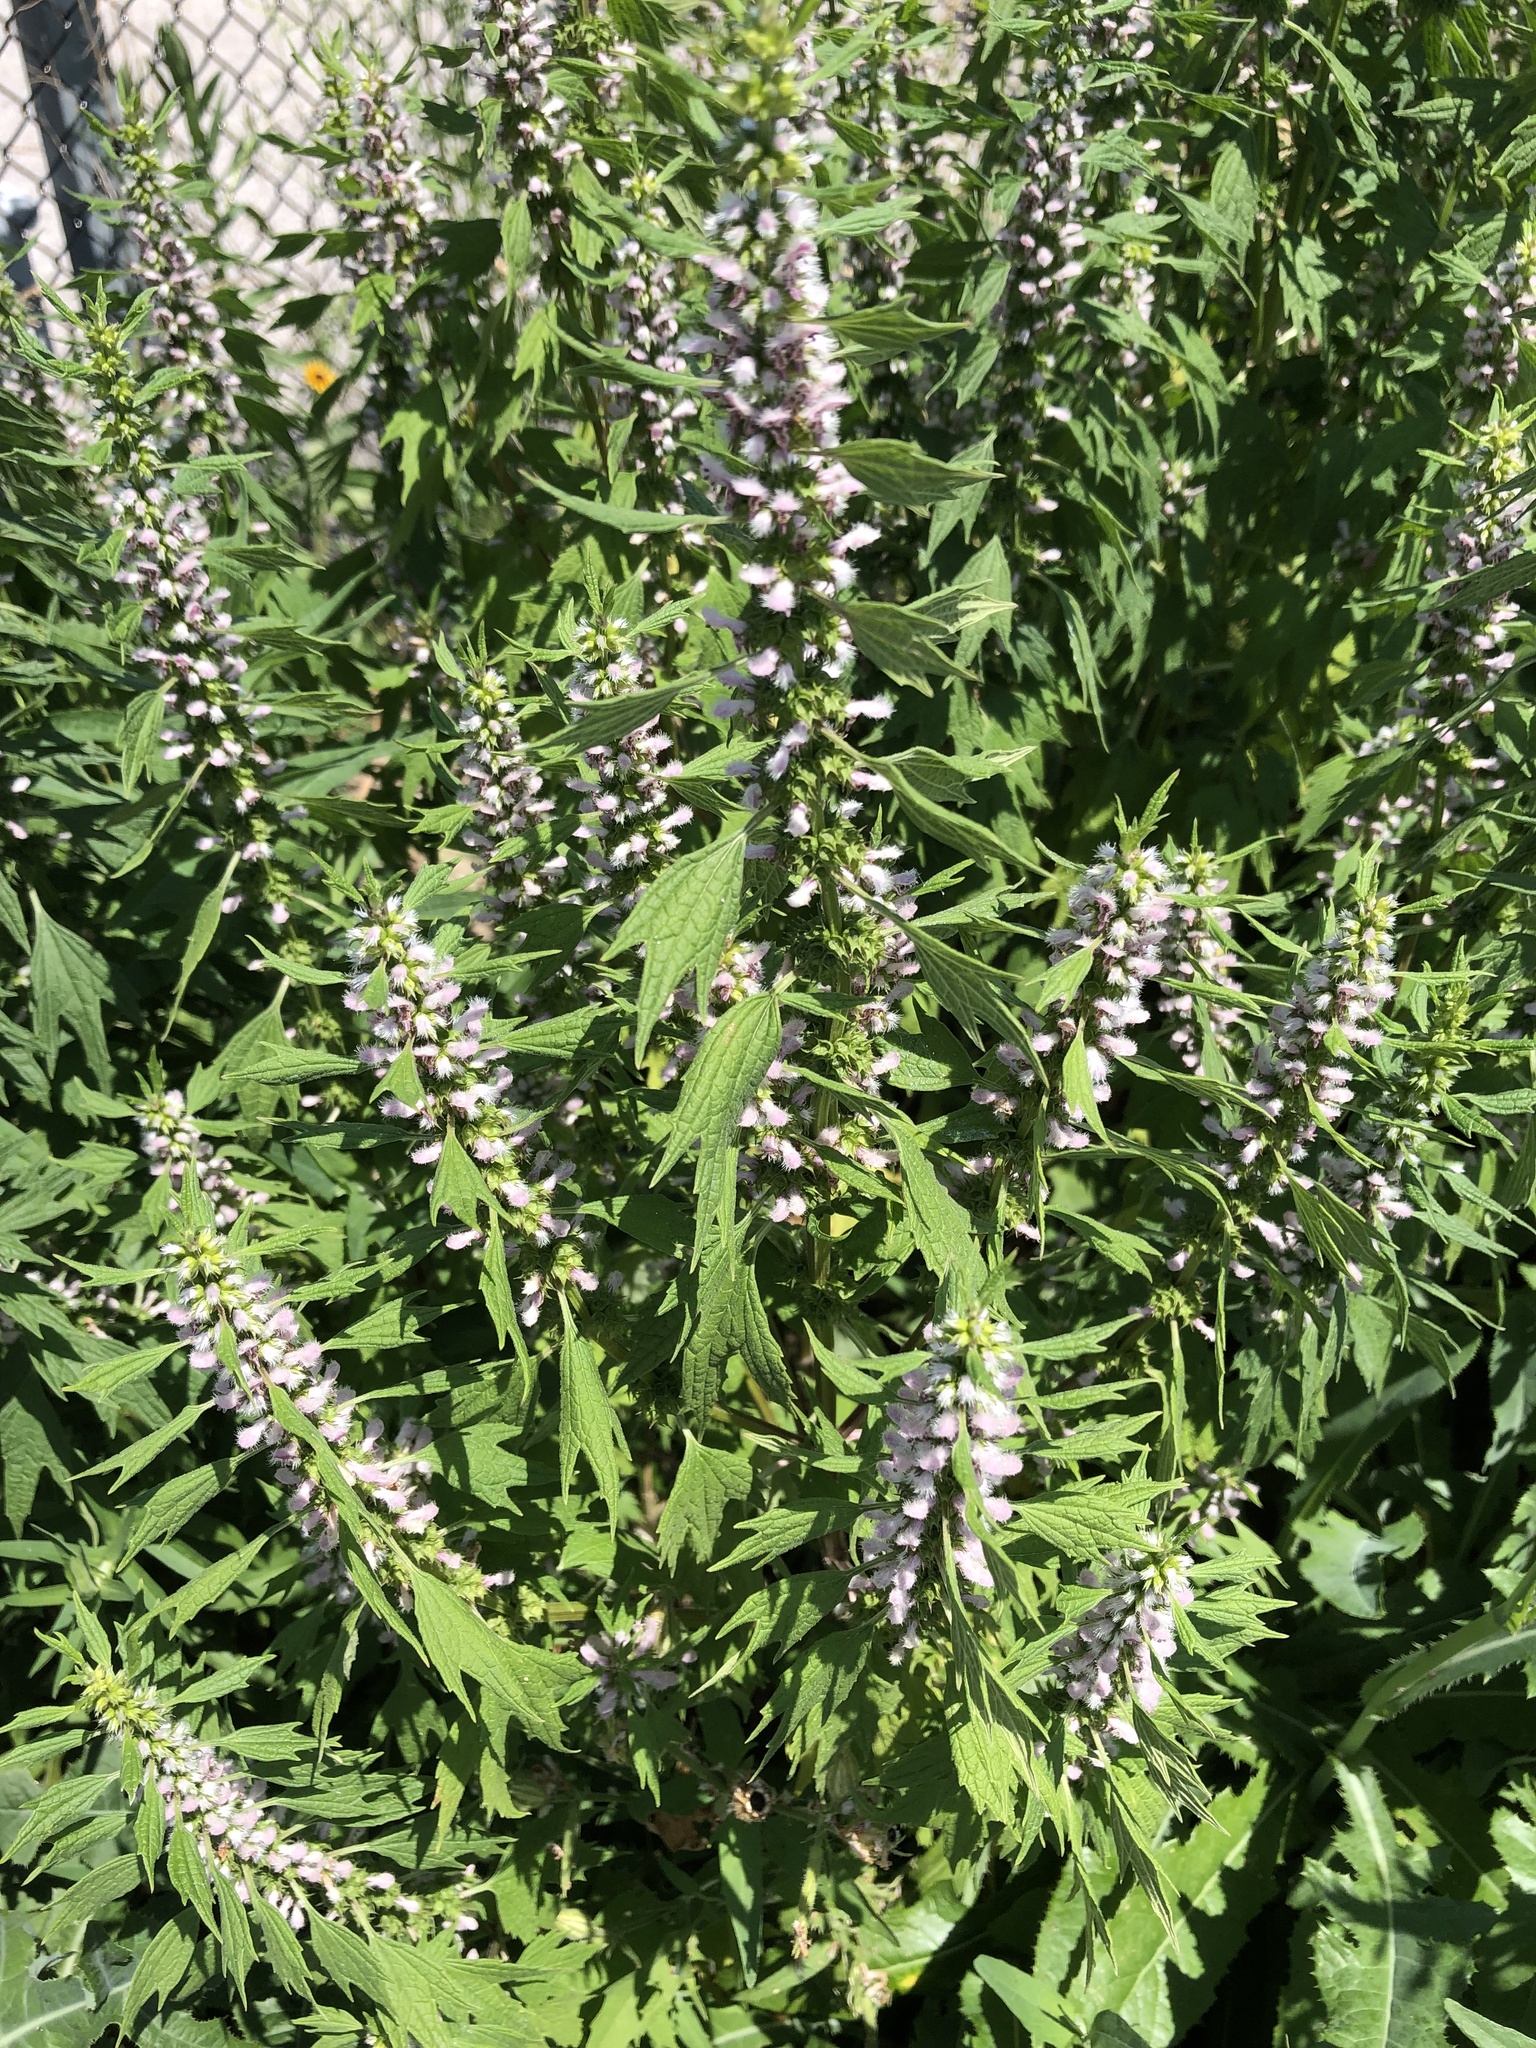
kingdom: Plantae
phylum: Tracheophyta
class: Magnoliopsida
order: Lamiales
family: Lamiaceae
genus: Leonurus
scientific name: Leonurus cardiaca
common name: Motherwort
